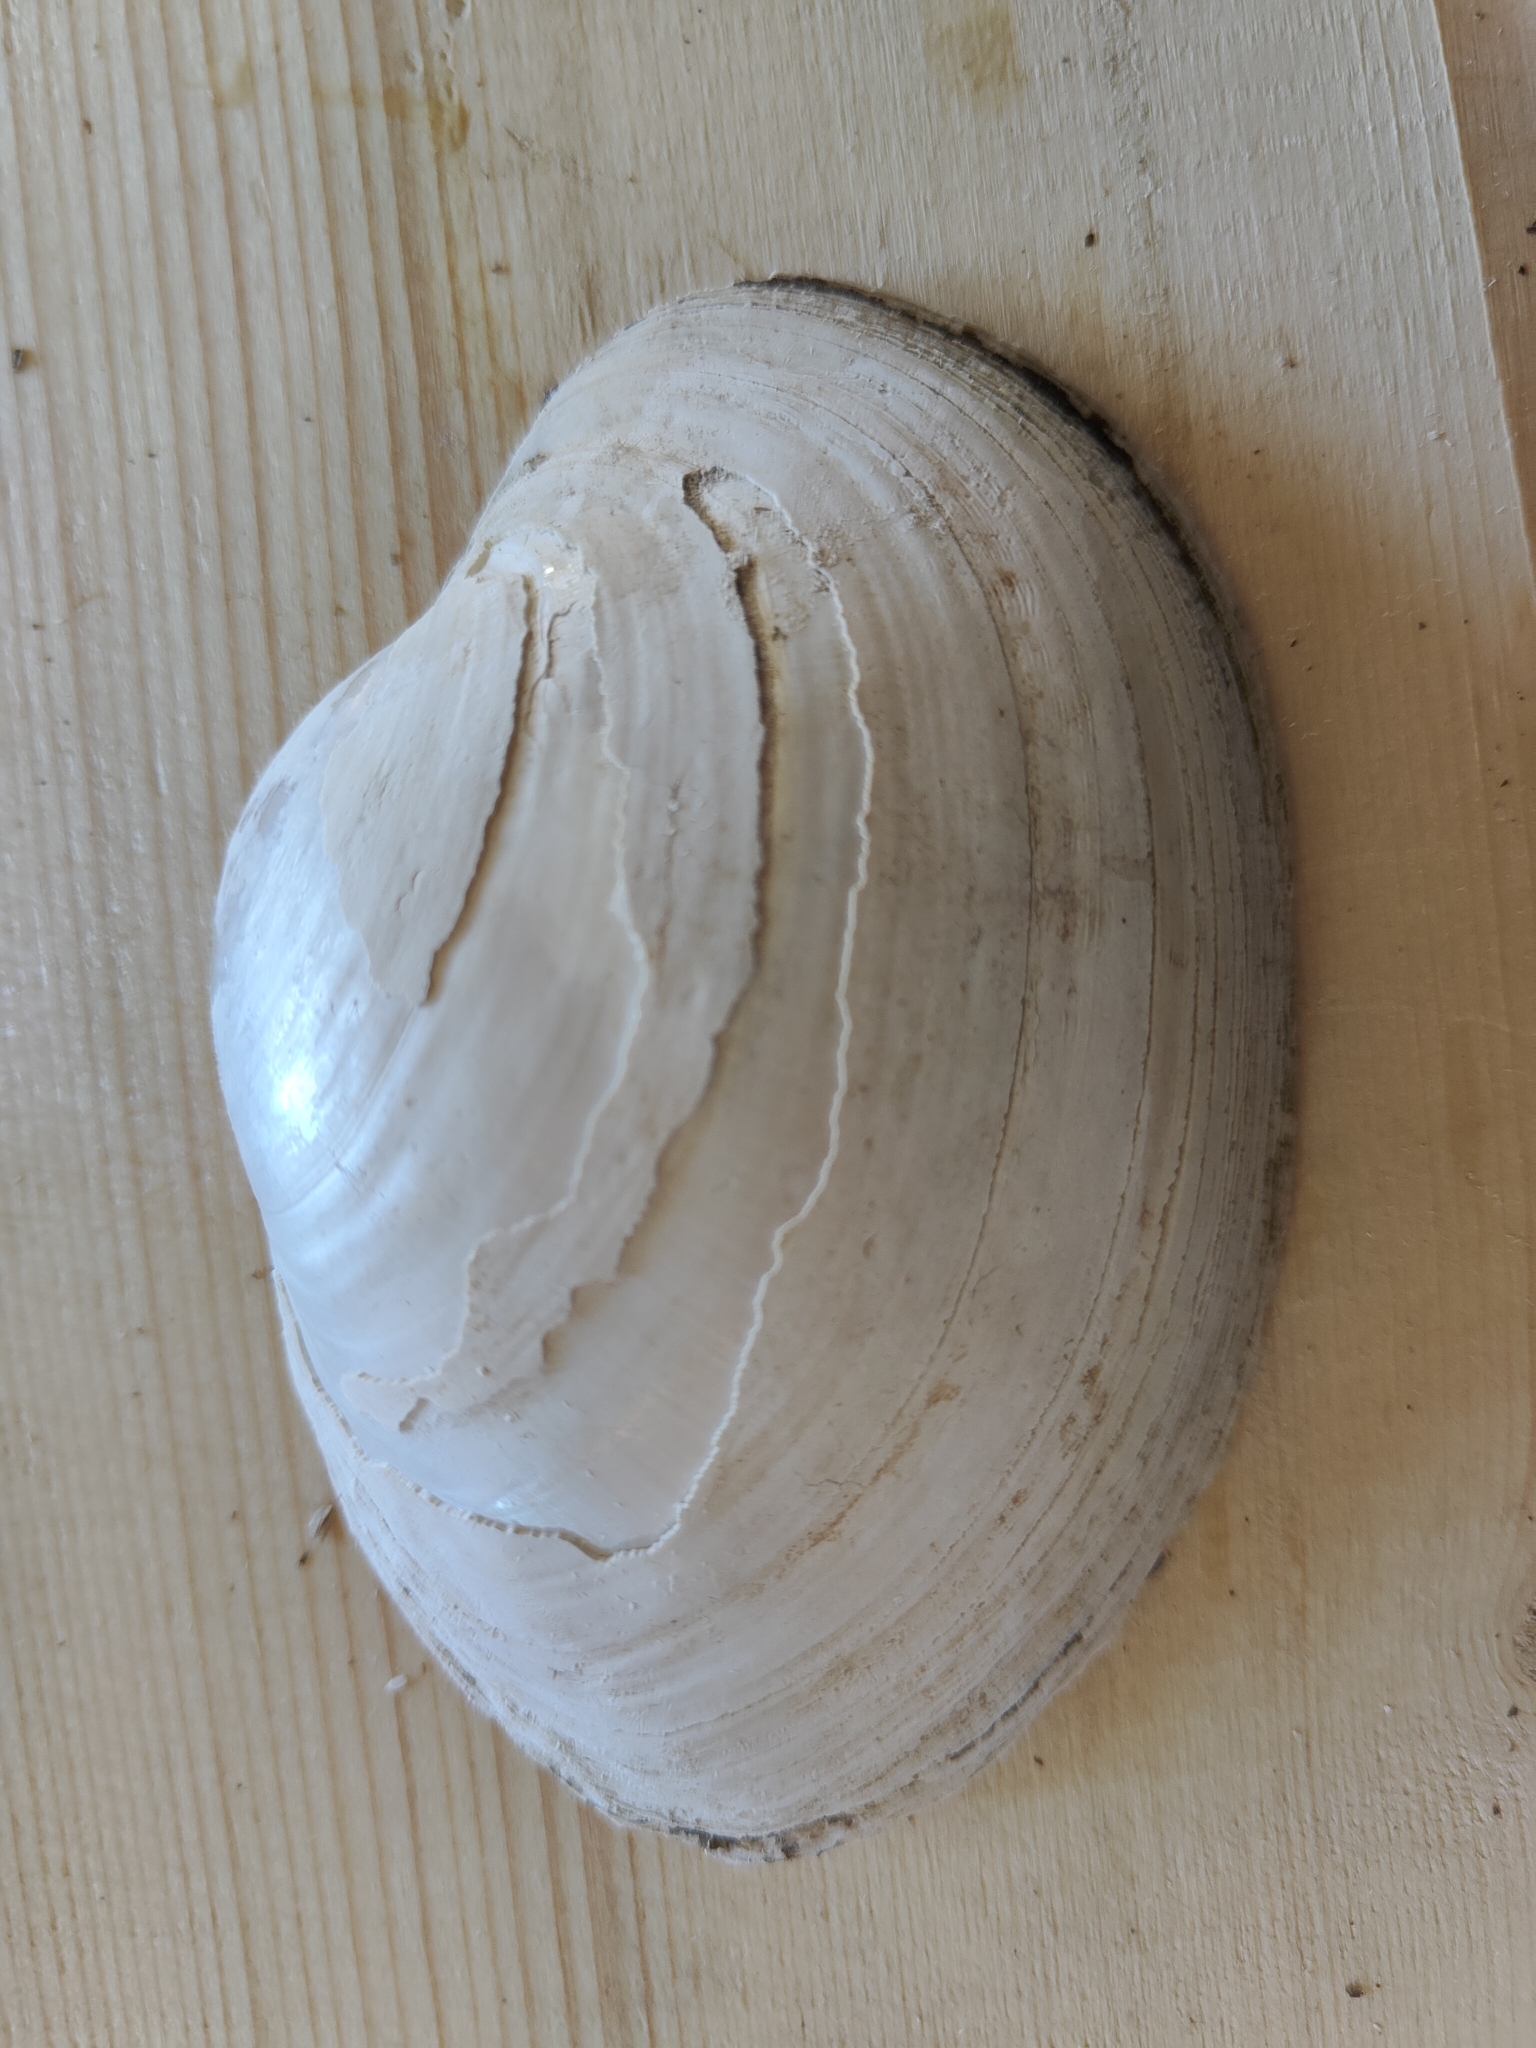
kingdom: Animalia
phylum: Mollusca
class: Bivalvia
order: Unionida
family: Unionidae
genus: Lampsilis
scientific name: Lampsilis cardium
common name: Plain pocketbook
